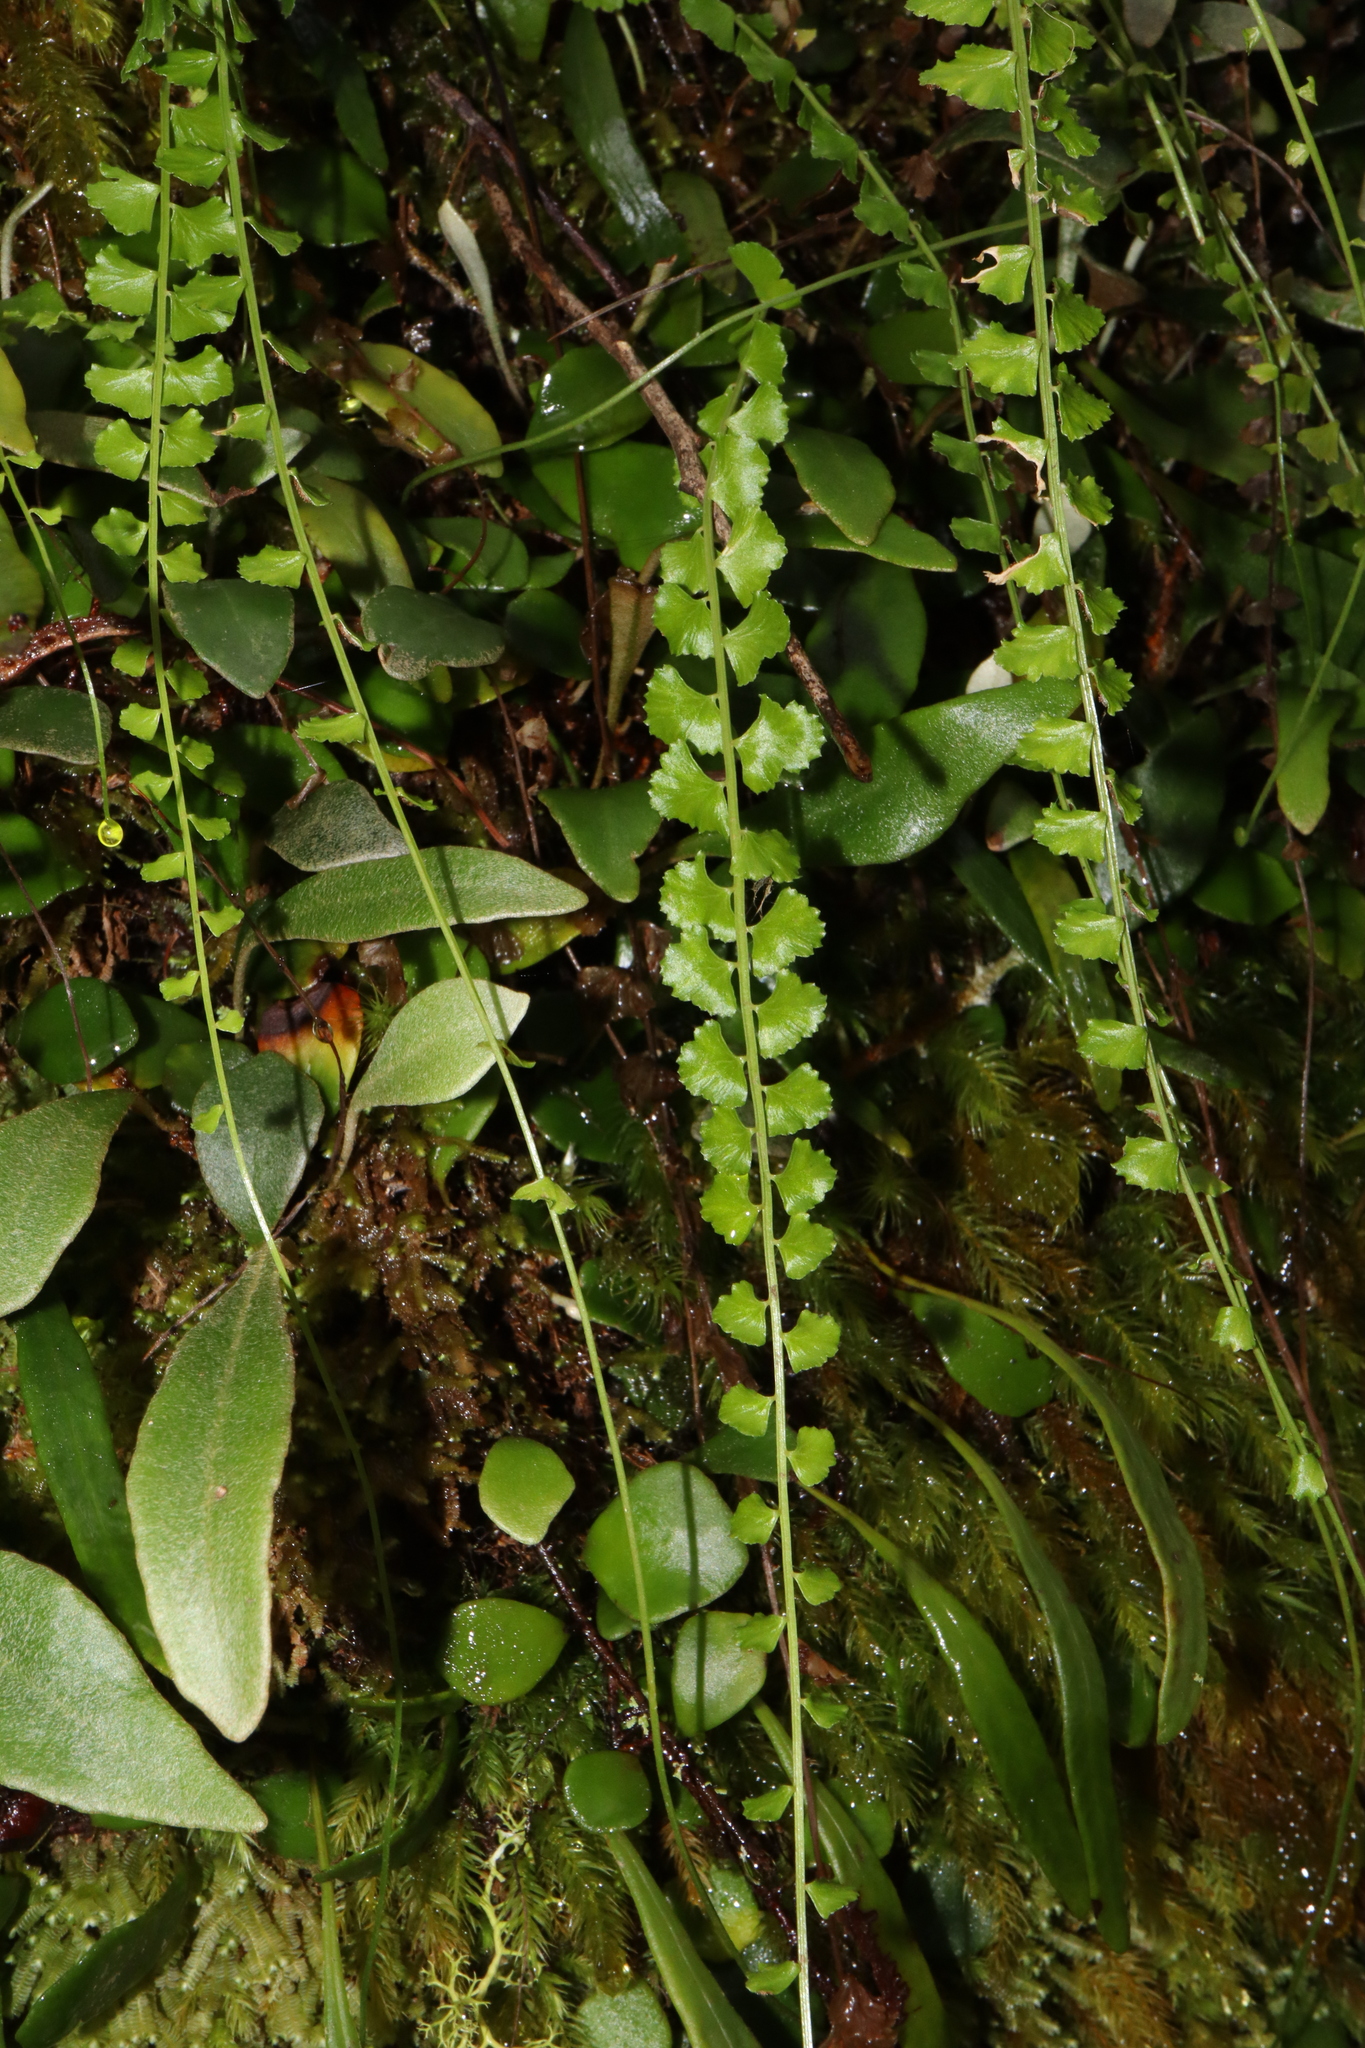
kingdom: Plantae
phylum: Tracheophyta
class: Polypodiopsida
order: Polypodiales
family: Aspleniaceae
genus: Asplenium
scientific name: Asplenium flabellifolium
